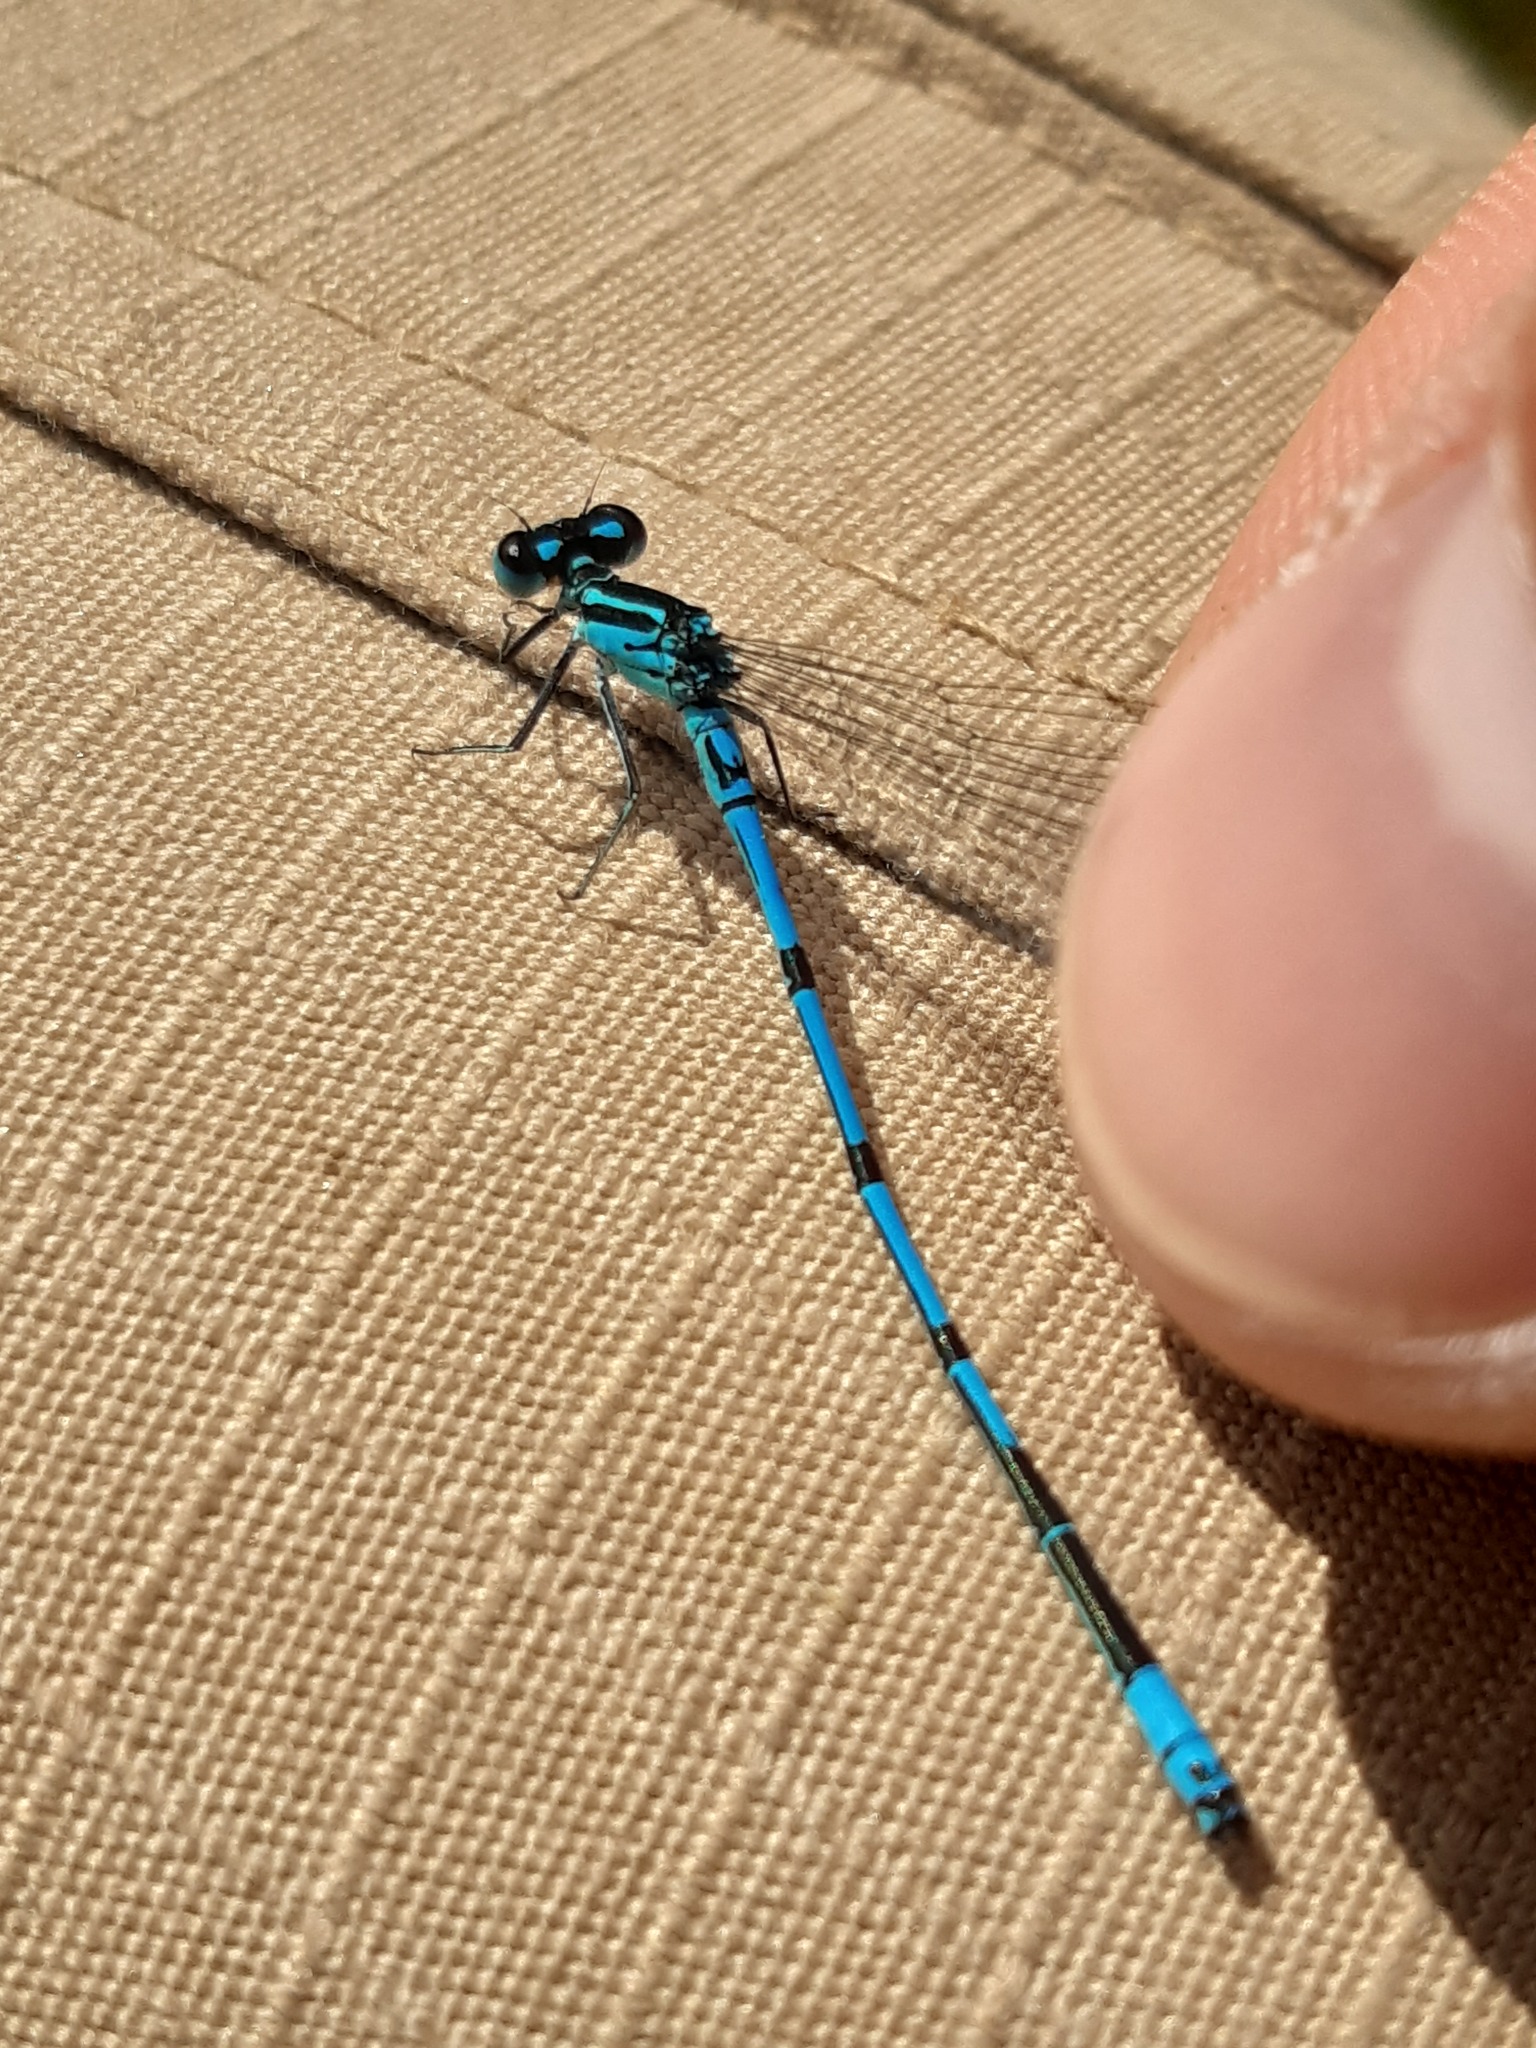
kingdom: Animalia
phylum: Arthropoda
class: Insecta
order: Odonata
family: Coenagrionidae
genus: Coenagrion
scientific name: Coenagrion puella
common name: Azure damselfly
